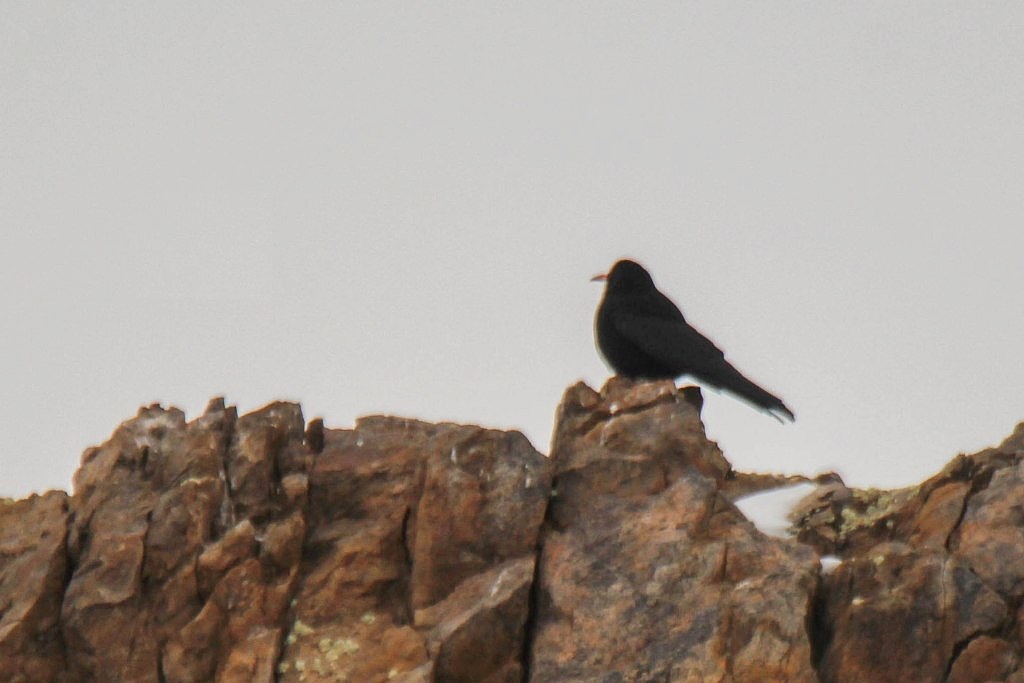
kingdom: Animalia
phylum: Chordata
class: Aves
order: Passeriformes
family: Corvidae
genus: Pyrrhocorax
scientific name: Pyrrhocorax pyrrhocorax
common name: Red-billed chough
